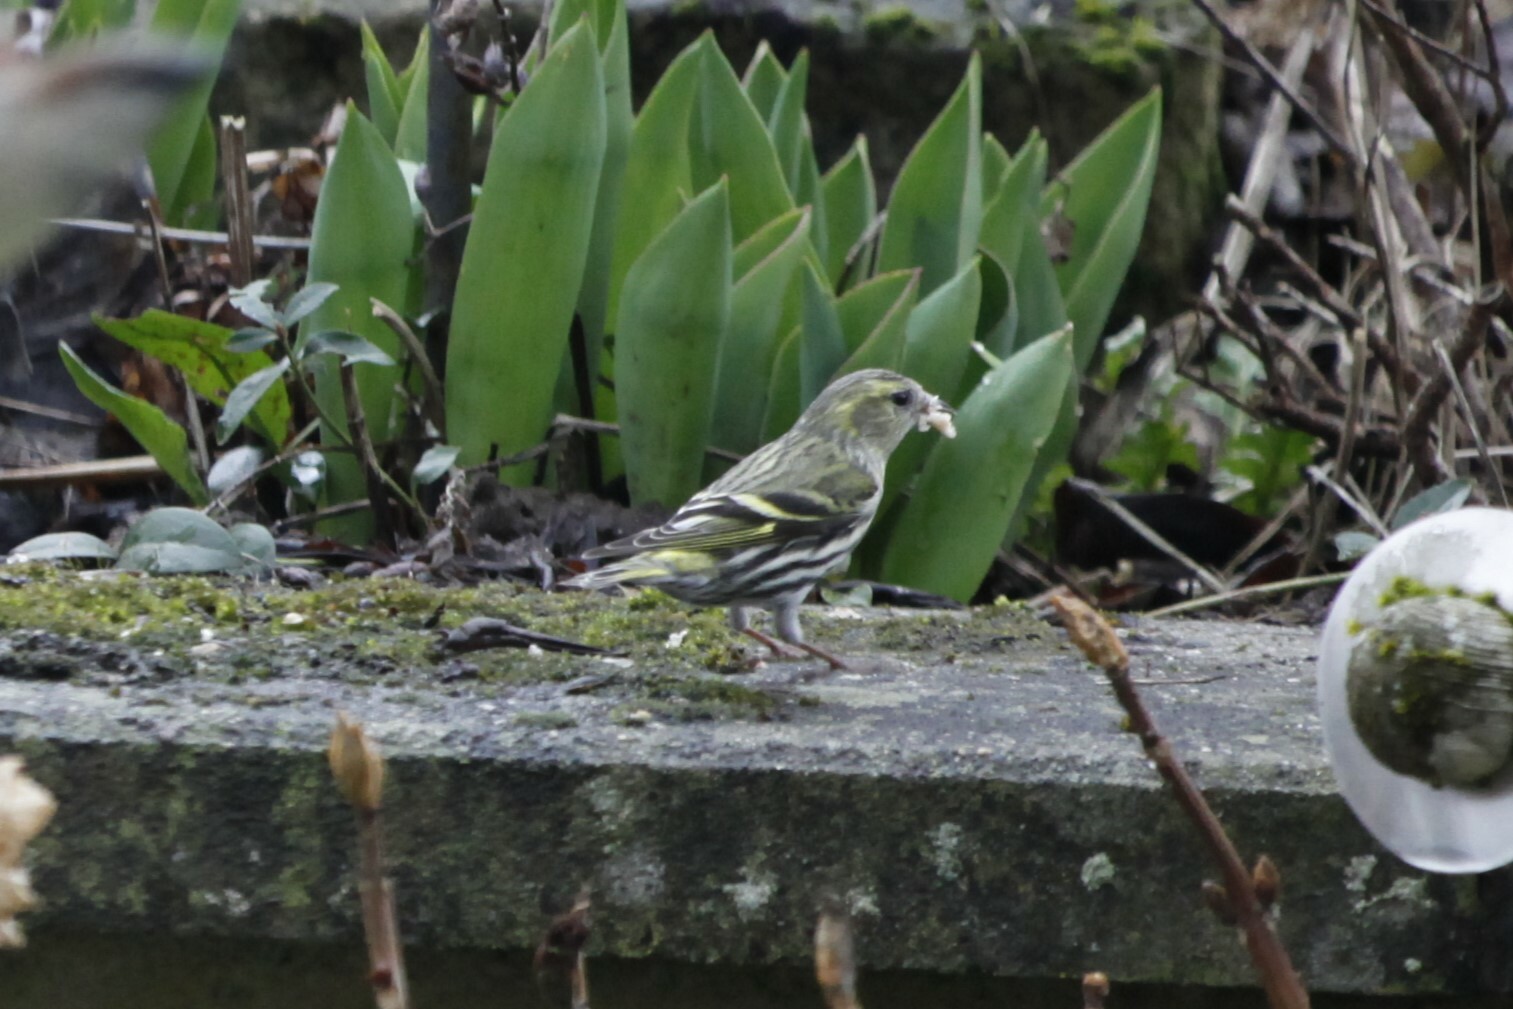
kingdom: Animalia
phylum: Chordata
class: Aves
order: Passeriformes
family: Fringillidae
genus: Spinus
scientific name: Spinus spinus
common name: Eurasian siskin
